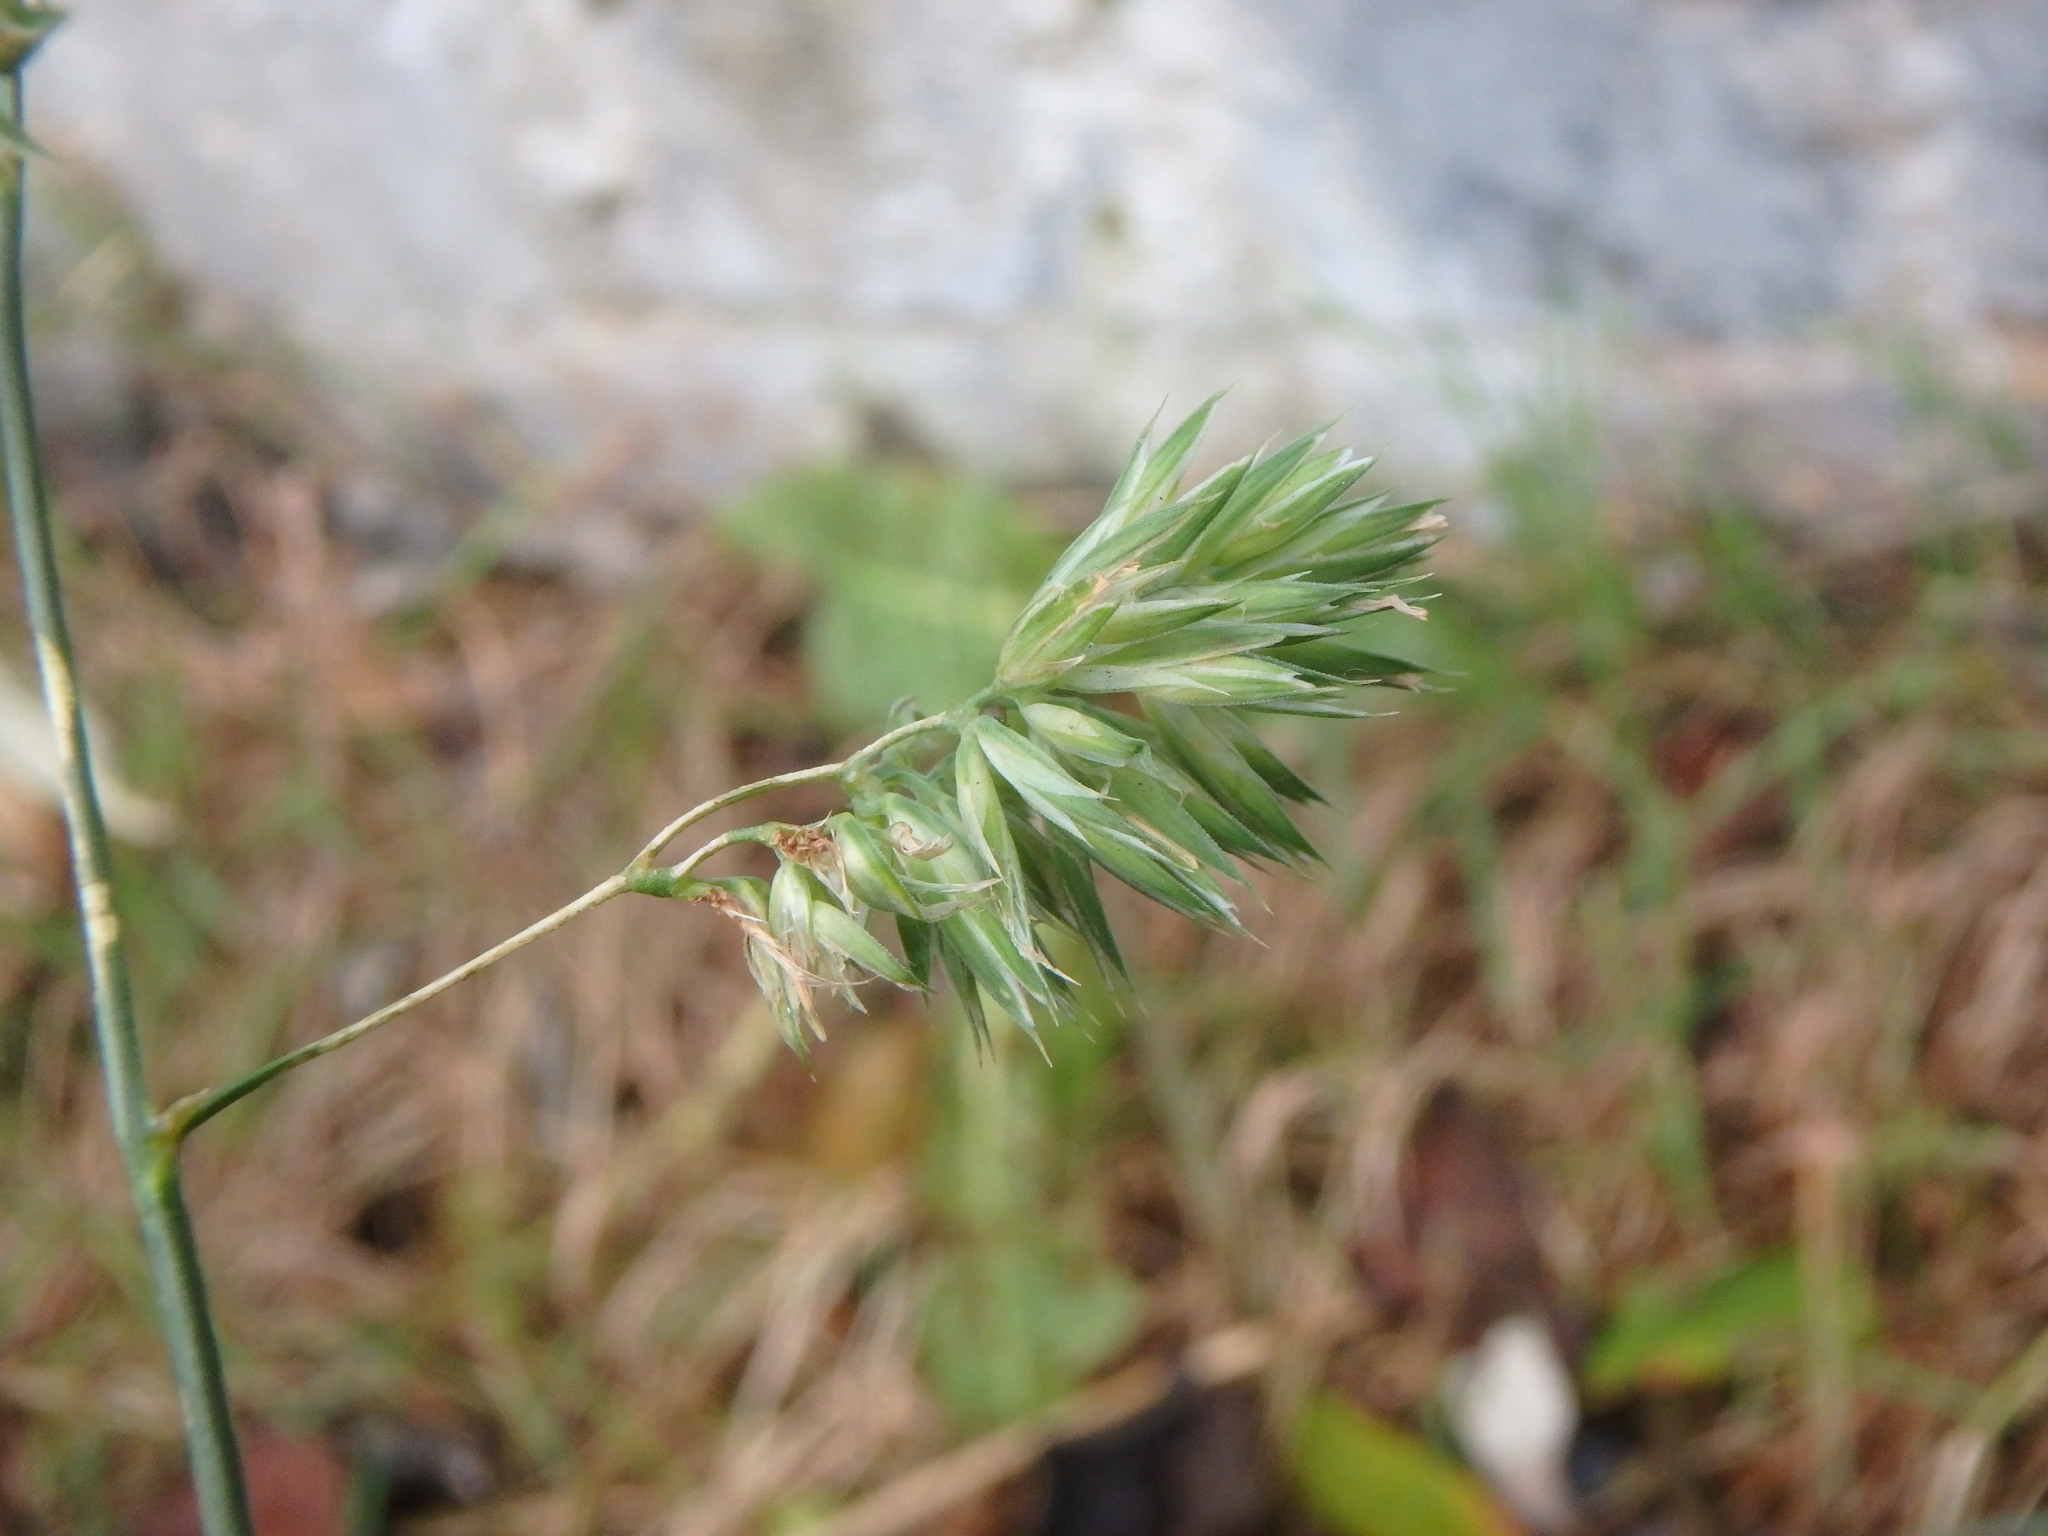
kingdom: Plantae
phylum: Tracheophyta
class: Liliopsida
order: Poales
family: Poaceae
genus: Dactylis
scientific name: Dactylis glomerata
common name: Orchardgrass
